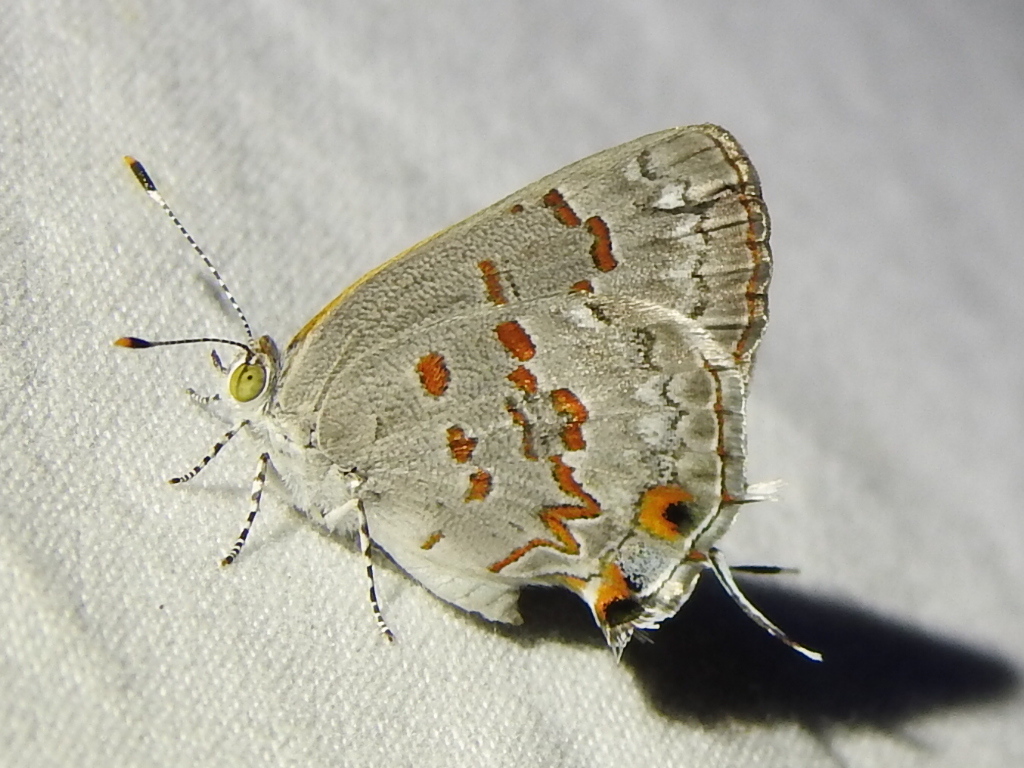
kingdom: Animalia
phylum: Arthropoda
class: Insecta
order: Lepidoptera
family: Lycaenidae
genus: Ministrymon
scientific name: Ministrymon clytie
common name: Clytie ministreak
